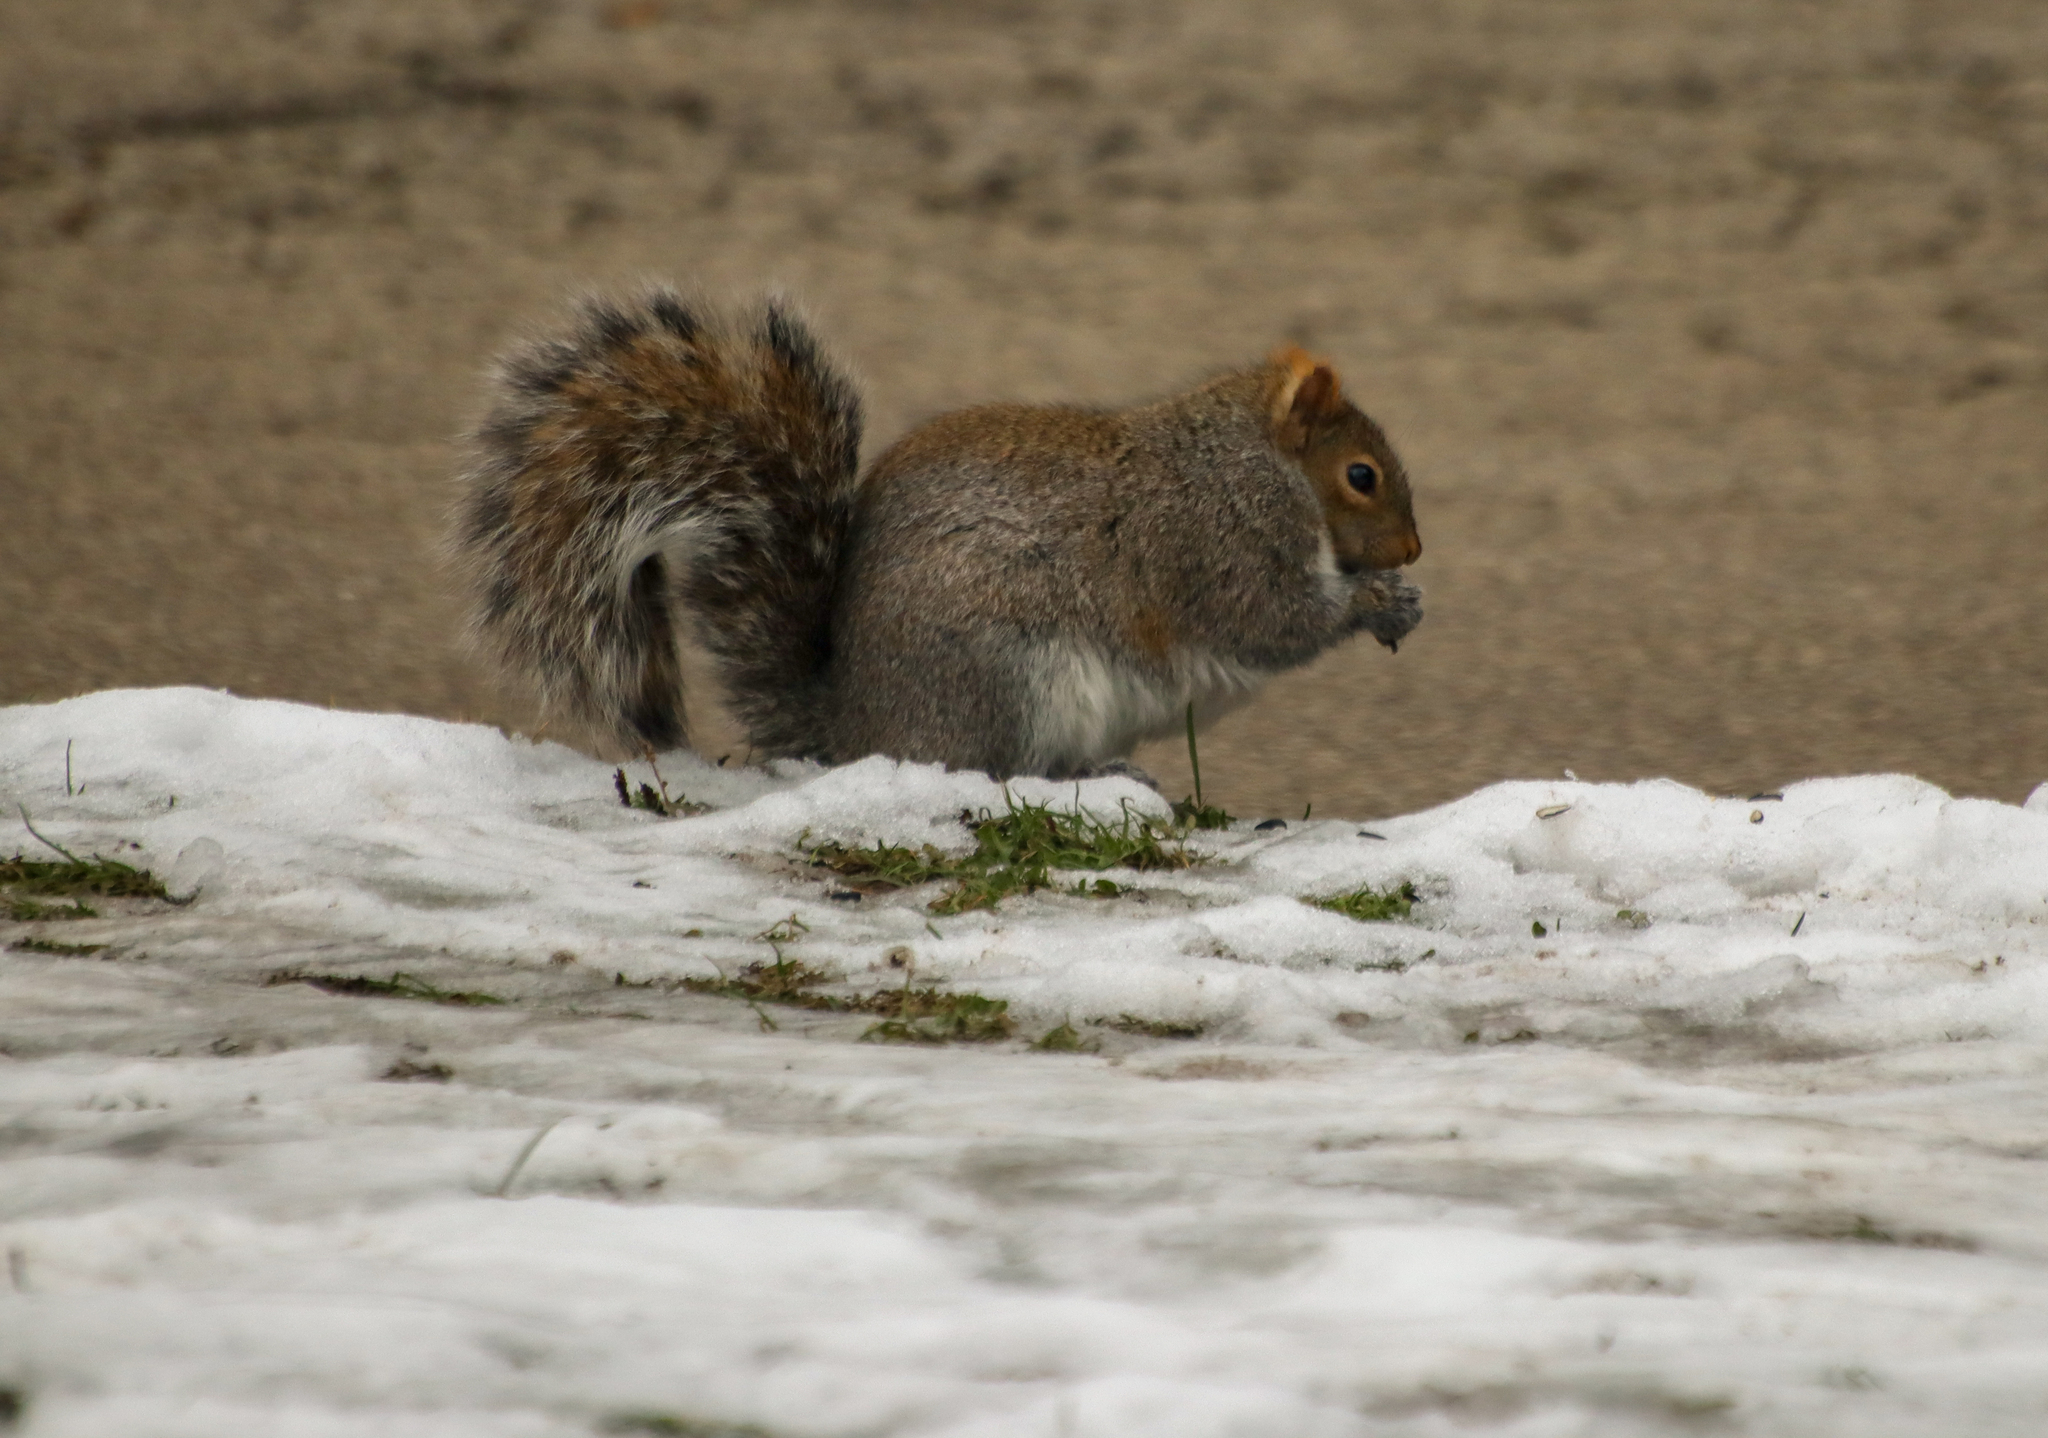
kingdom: Animalia
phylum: Chordata
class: Mammalia
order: Rodentia
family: Sciuridae
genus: Sciurus
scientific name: Sciurus carolinensis
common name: Eastern gray squirrel
